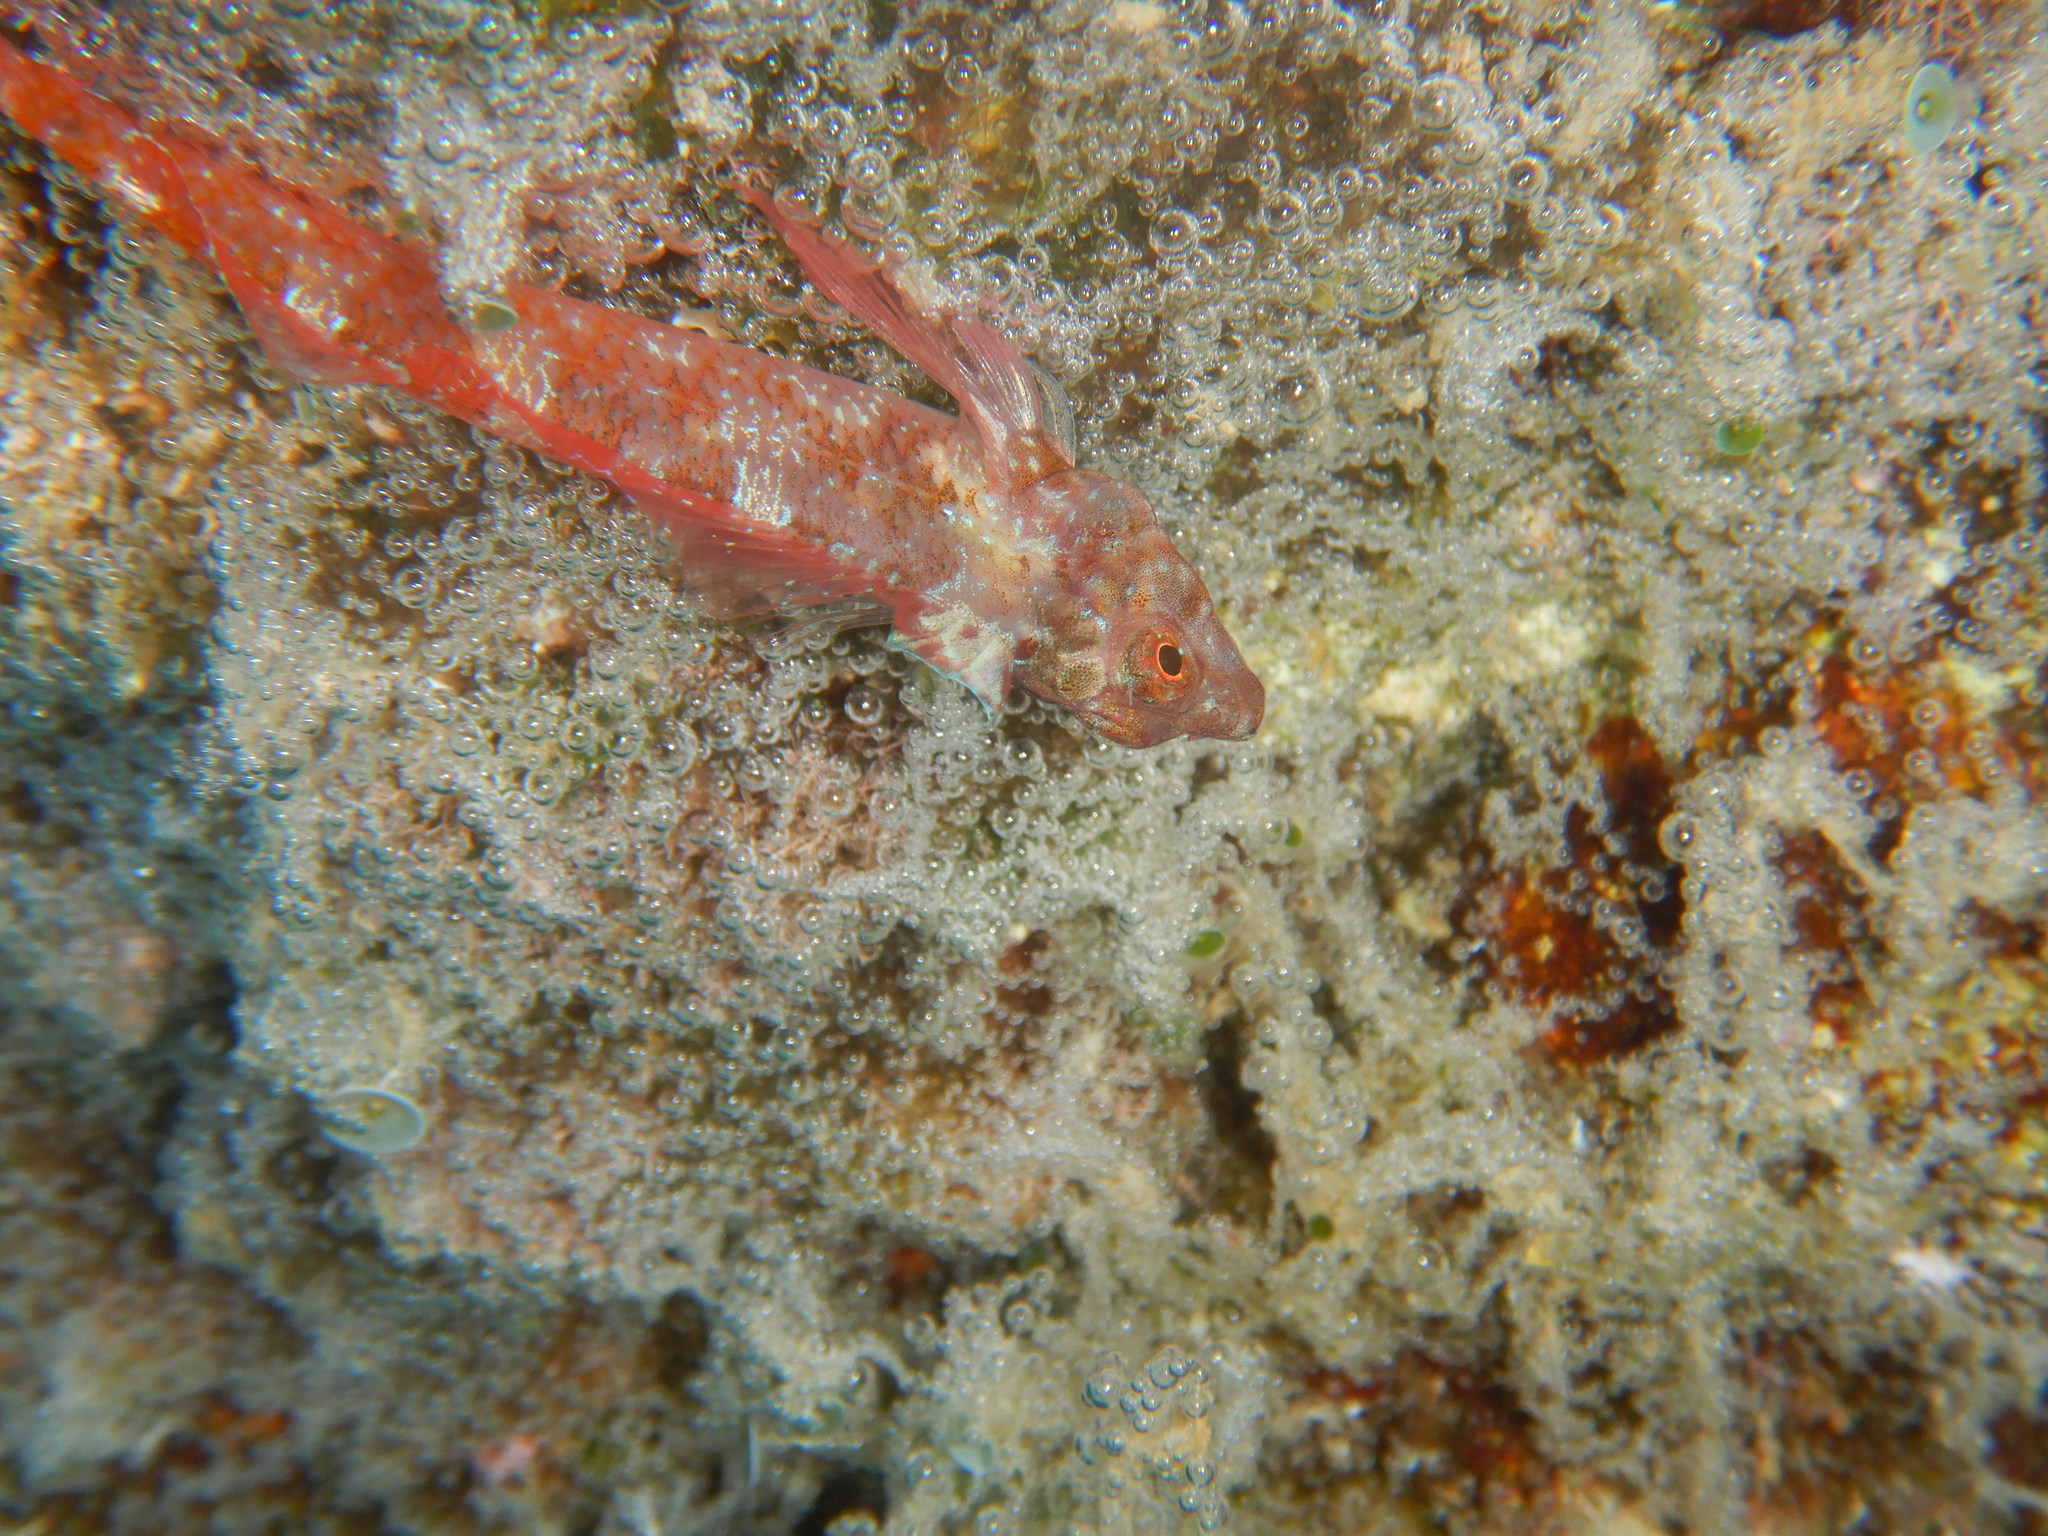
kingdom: Animalia
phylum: Chordata
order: Perciformes
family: Tripterygiidae
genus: Tripterygion
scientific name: Tripterygion tripteronotum
